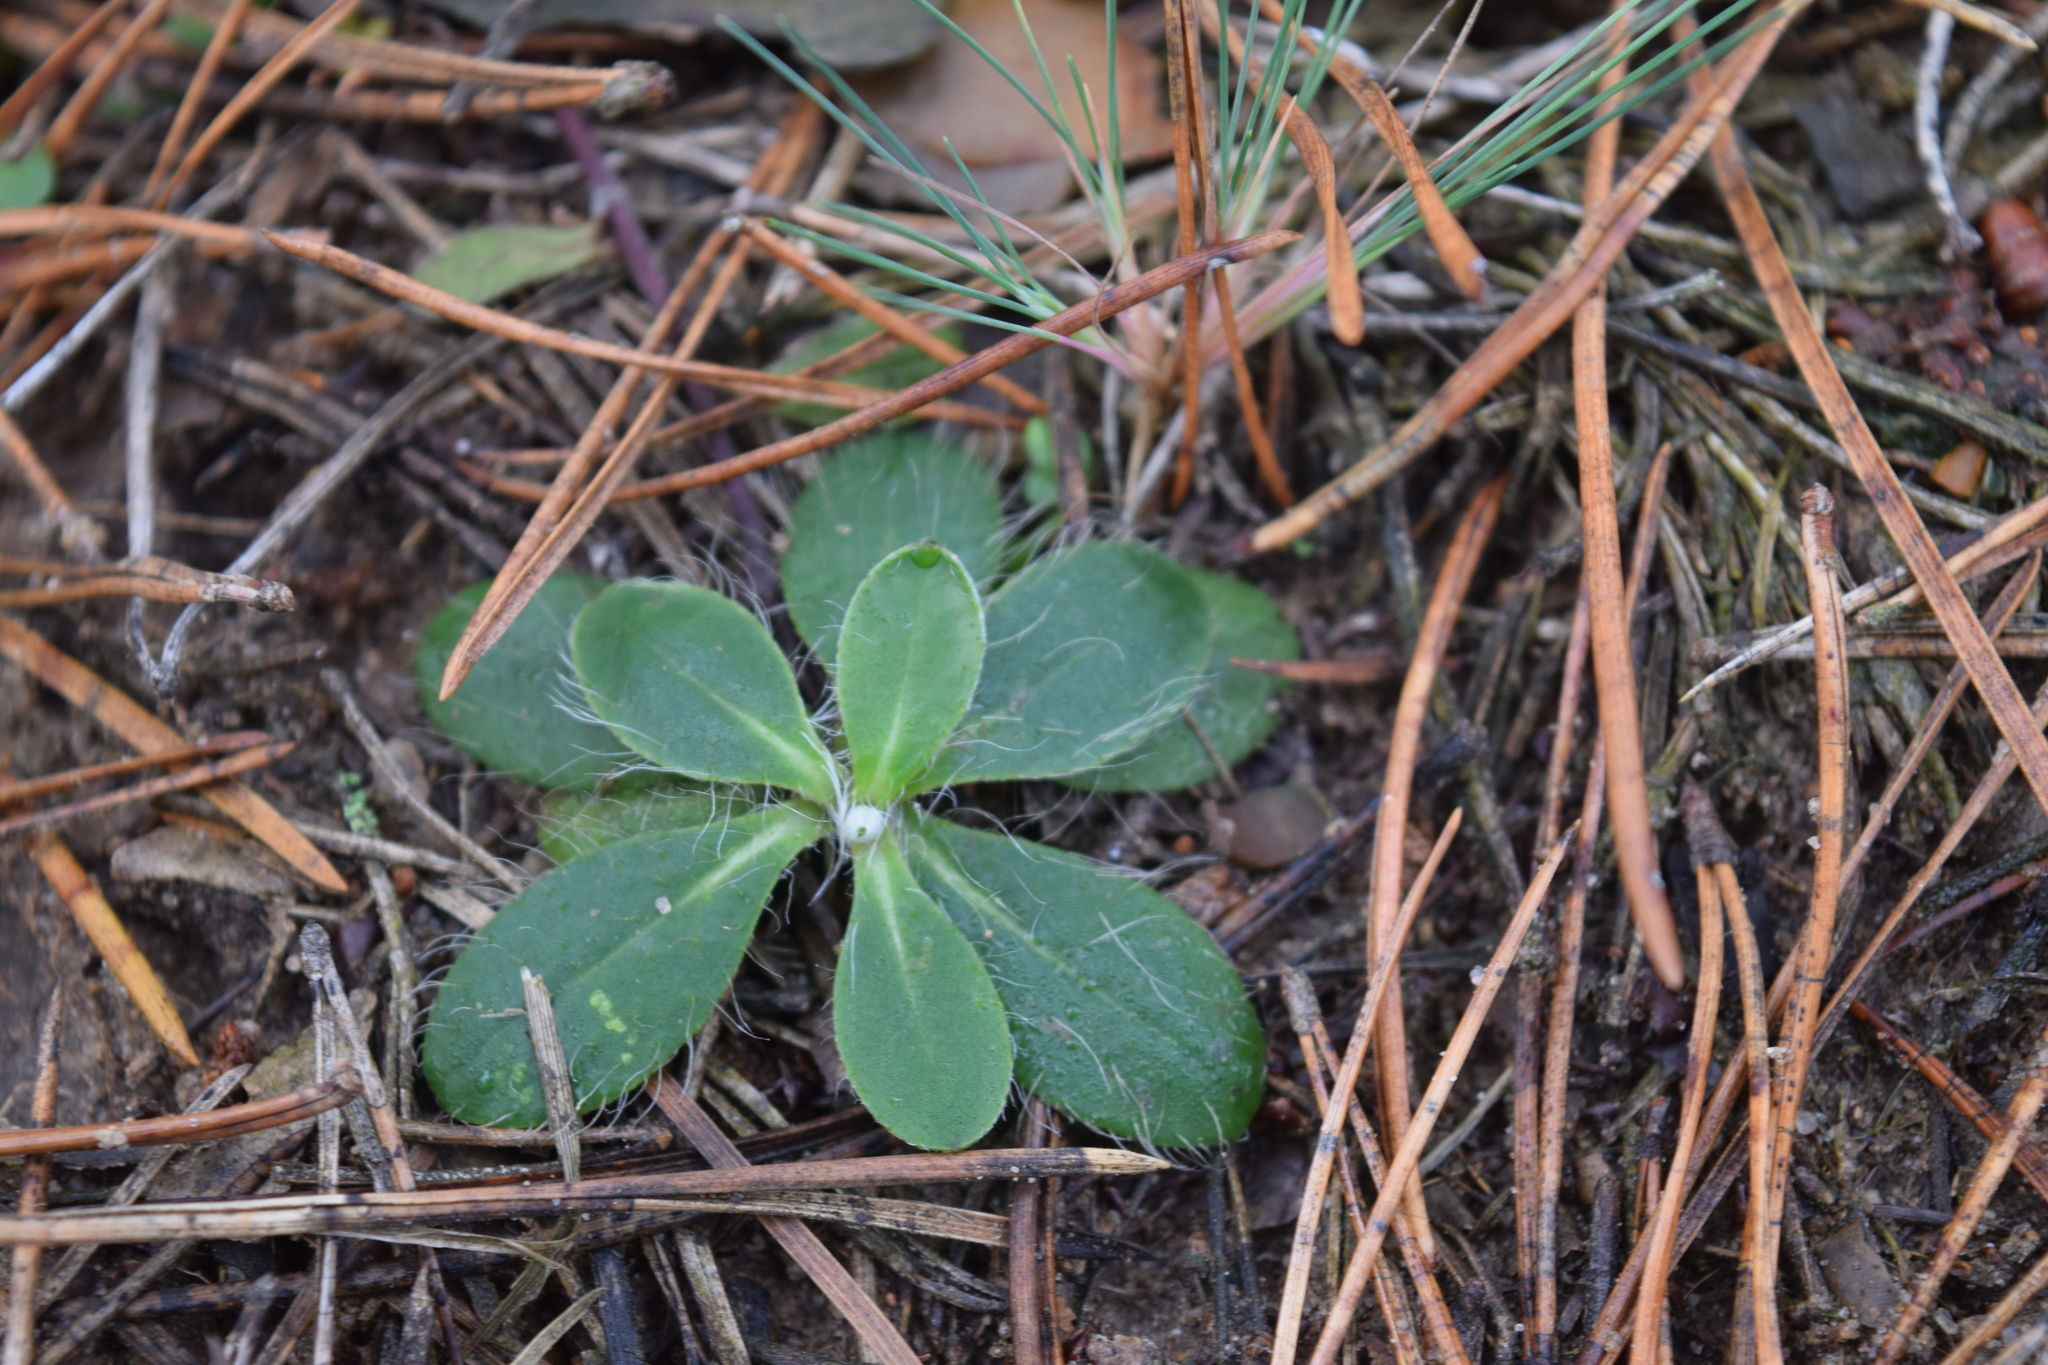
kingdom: Plantae
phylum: Tracheophyta
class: Magnoliopsida
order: Asterales
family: Asteraceae
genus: Pilosella
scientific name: Pilosella officinarum
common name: Mouse-ear hawkweed
